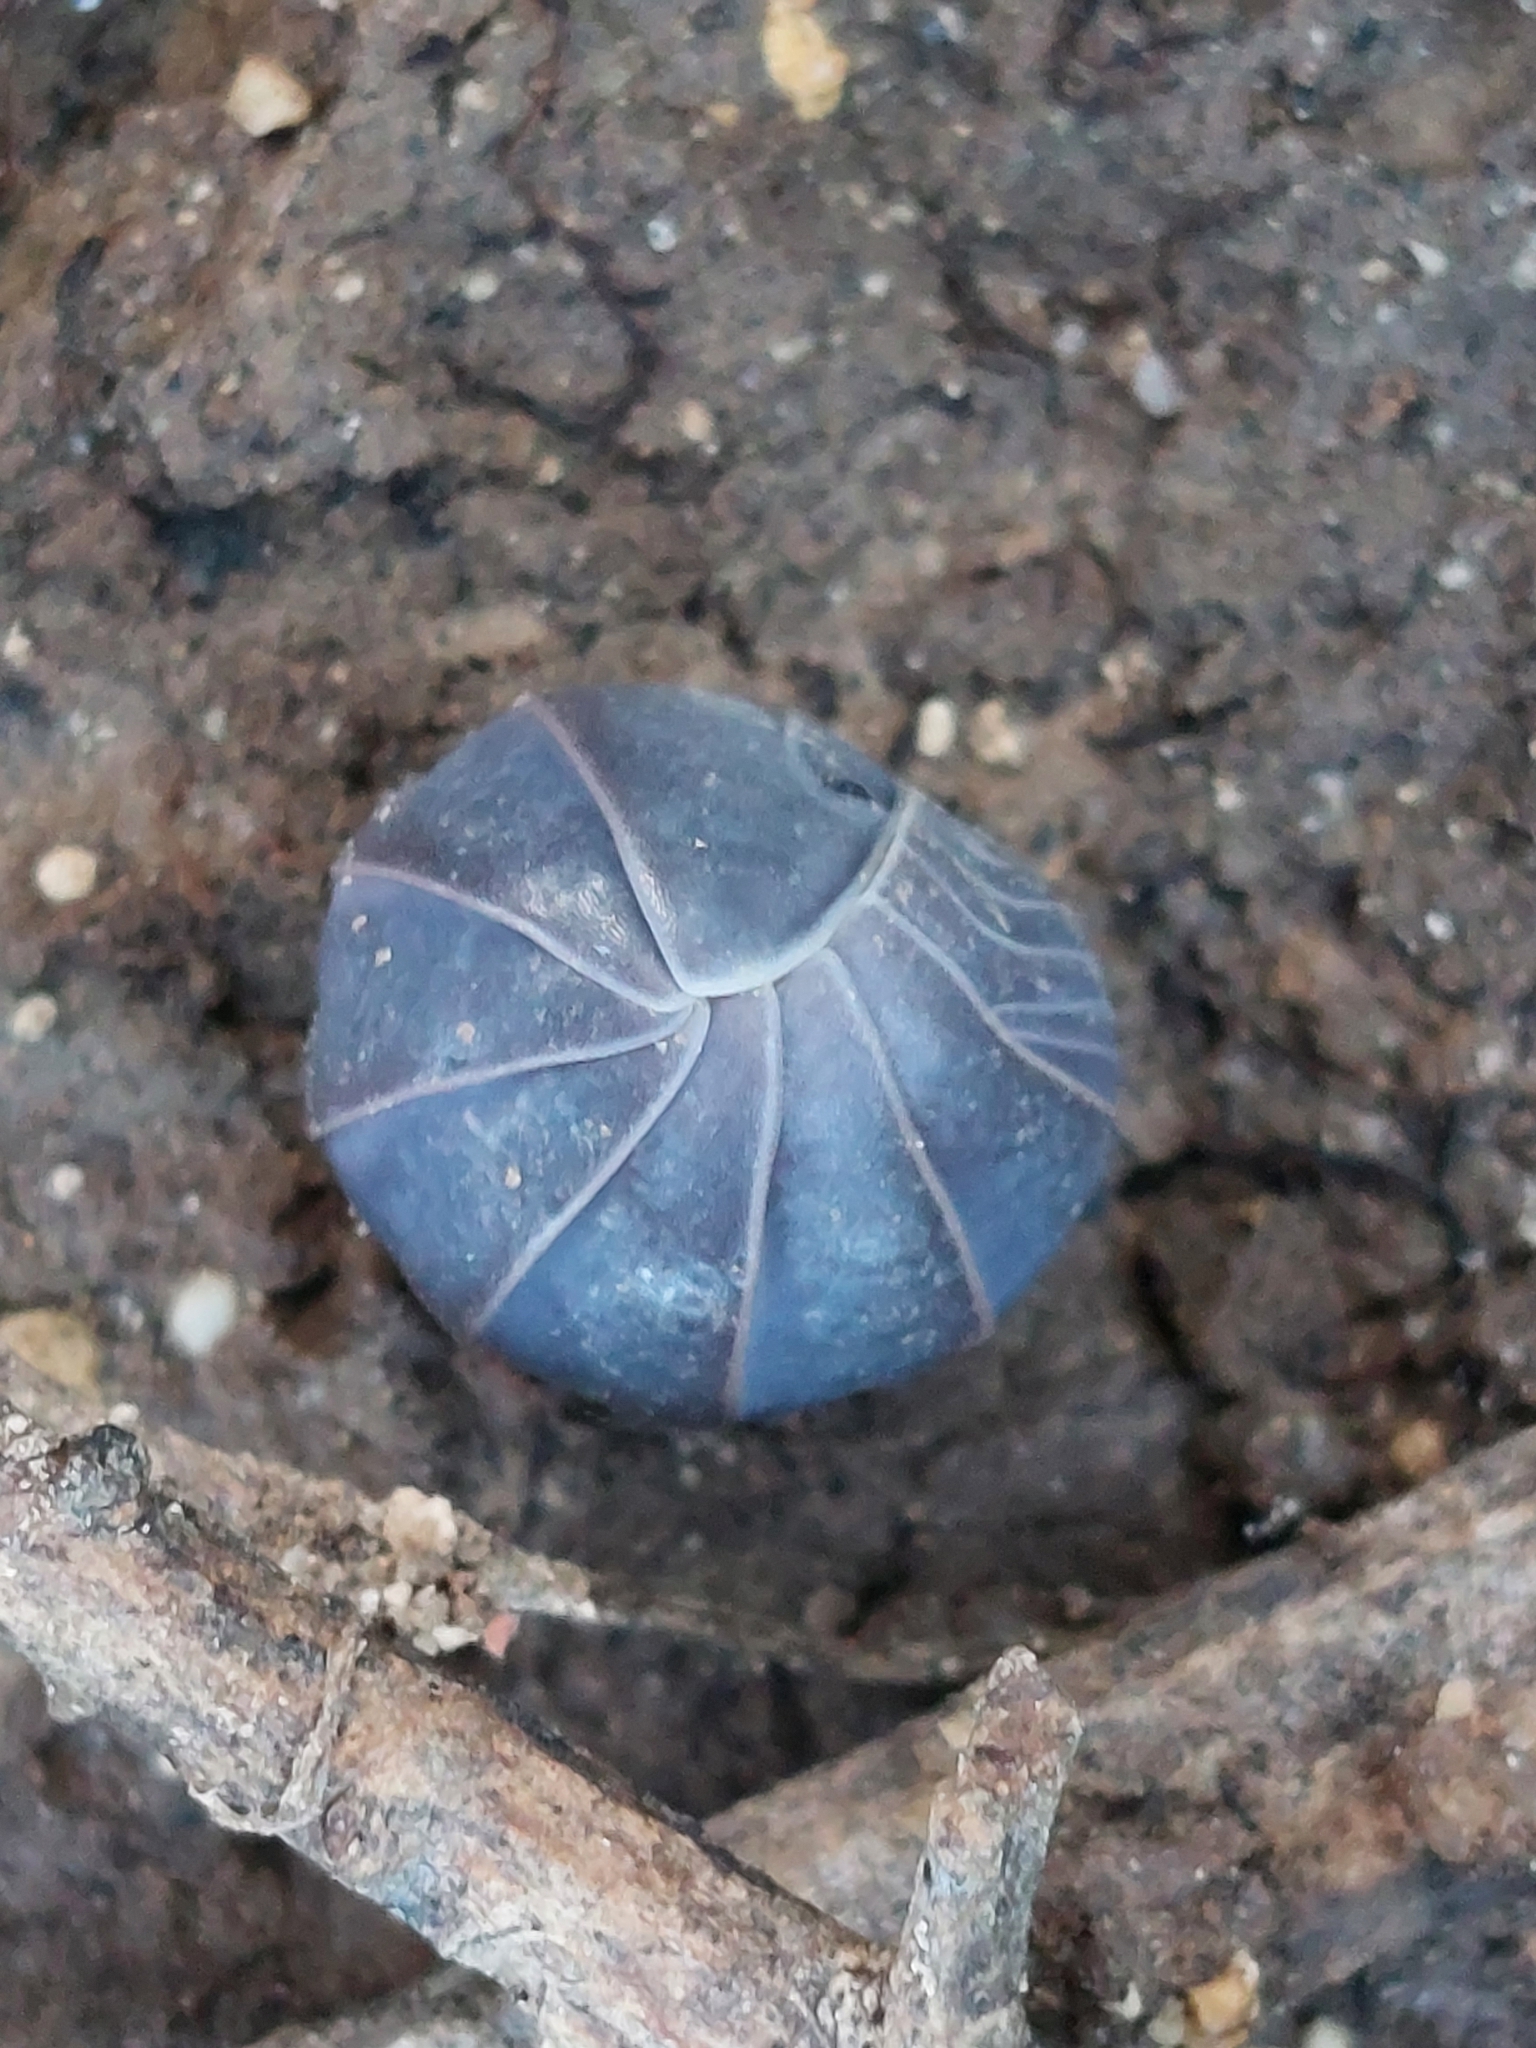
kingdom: Animalia
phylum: Arthropoda
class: Malacostraca
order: Isopoda
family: Armadillidae
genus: Armadillo
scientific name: Armadillo officinalis
